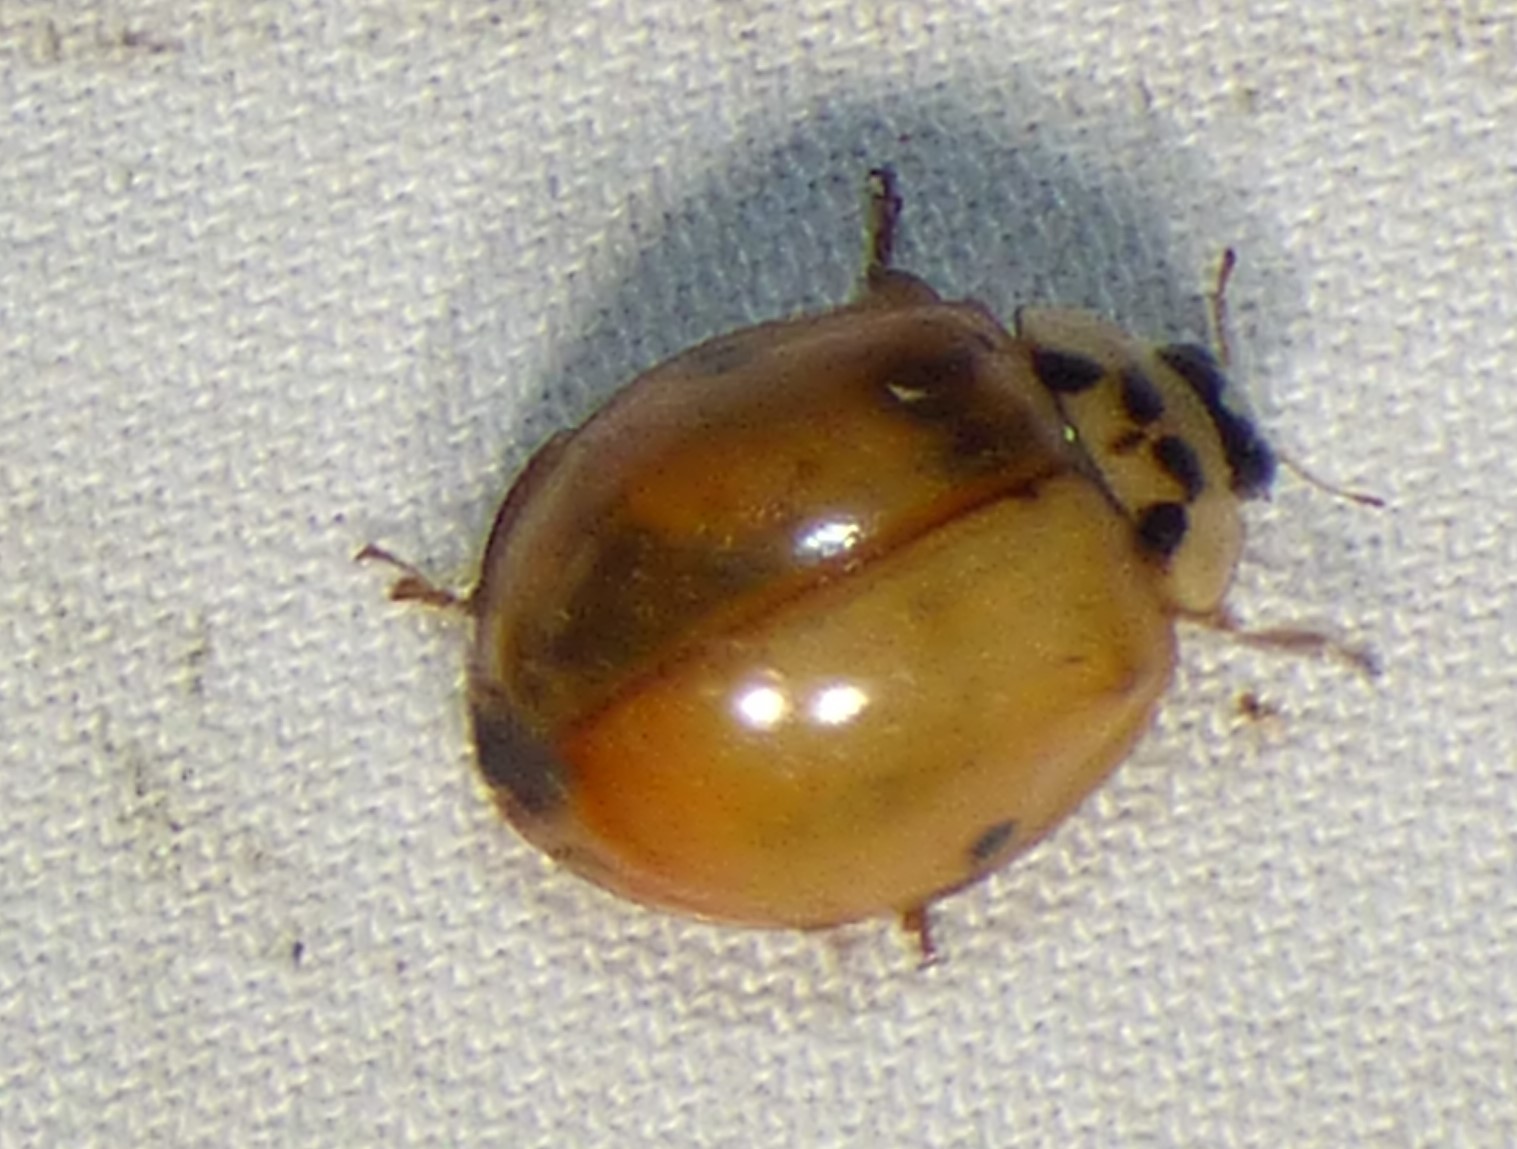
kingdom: Animalia
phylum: Arthropoda
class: Insecta
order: Coleoptera
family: Coccinellidae
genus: Harmonia
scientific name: Harmonia axyridis
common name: Harlequin ladybird
